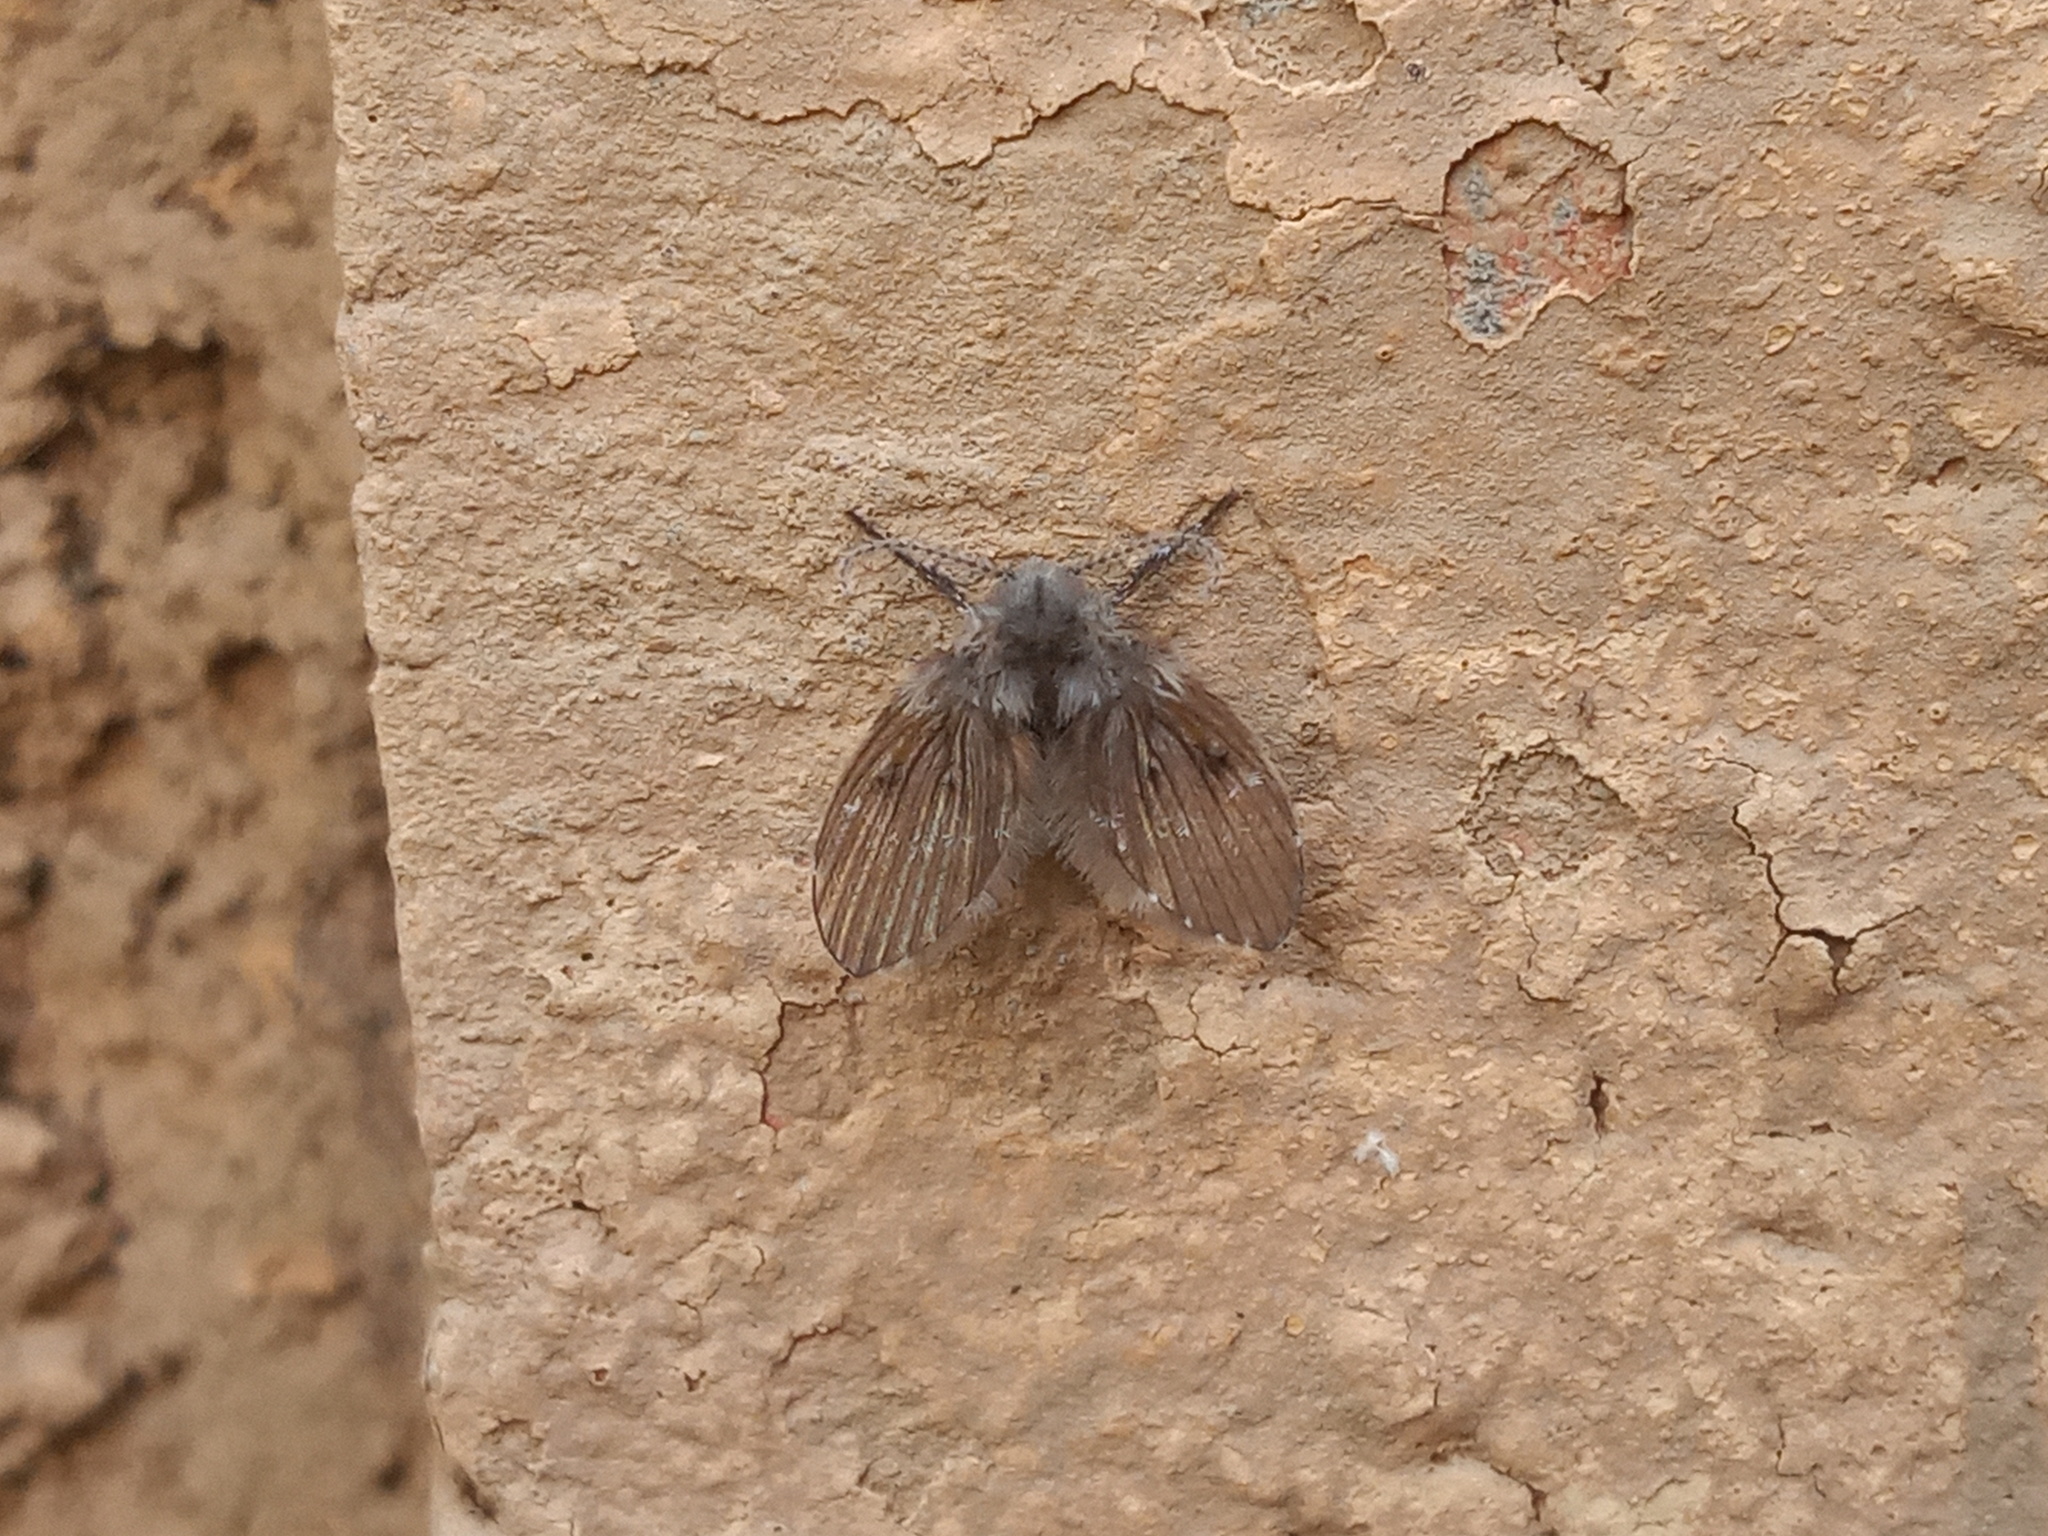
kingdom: Animalia
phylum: Arthropoda
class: Insecta
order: Diptera
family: Psychodidae
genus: Clogmia
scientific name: Clogmia albipunctatus
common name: White-spotted moth fly
